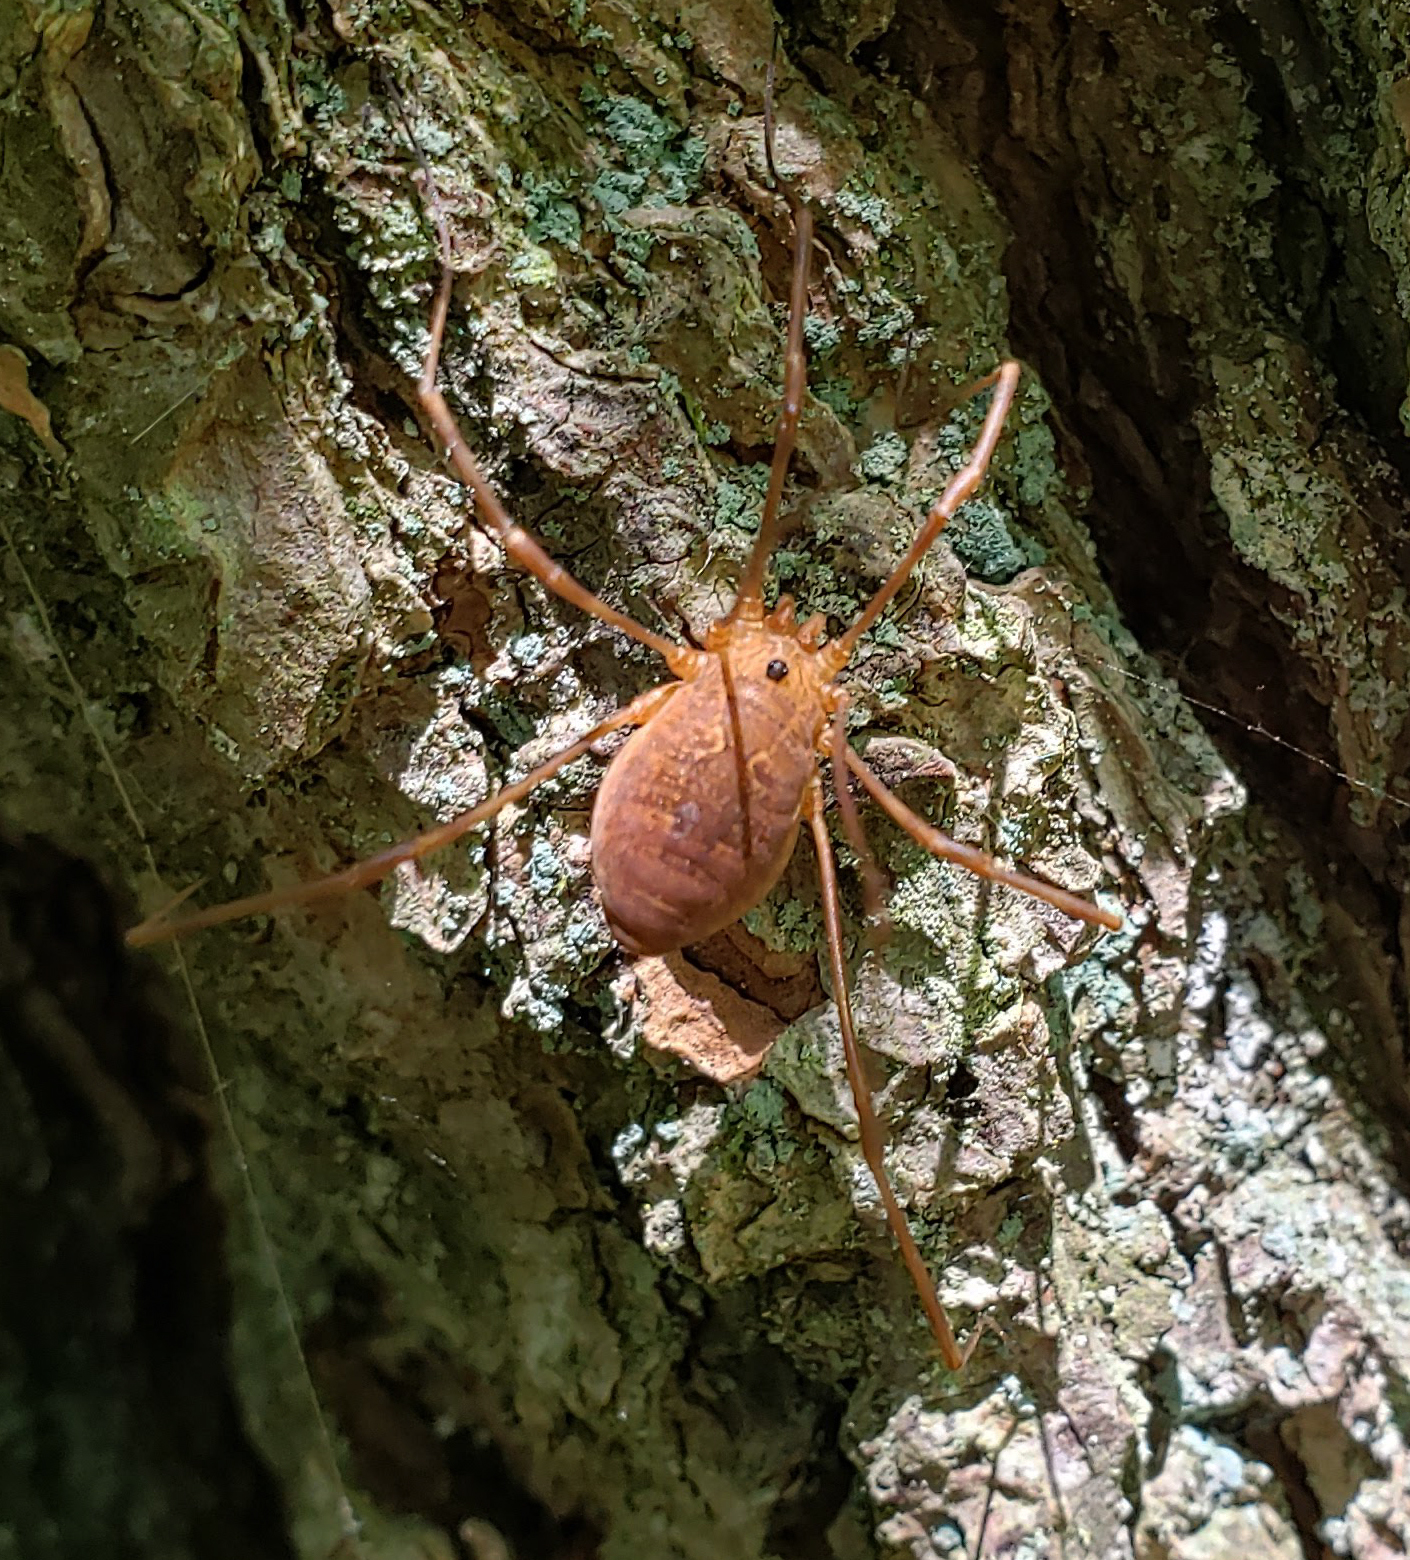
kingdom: Animalia
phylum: Arthropoda
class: Arachnida
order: Opiliones
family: Sclerosomatidae
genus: Leiobunum
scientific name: Leiobunum ventricosum
